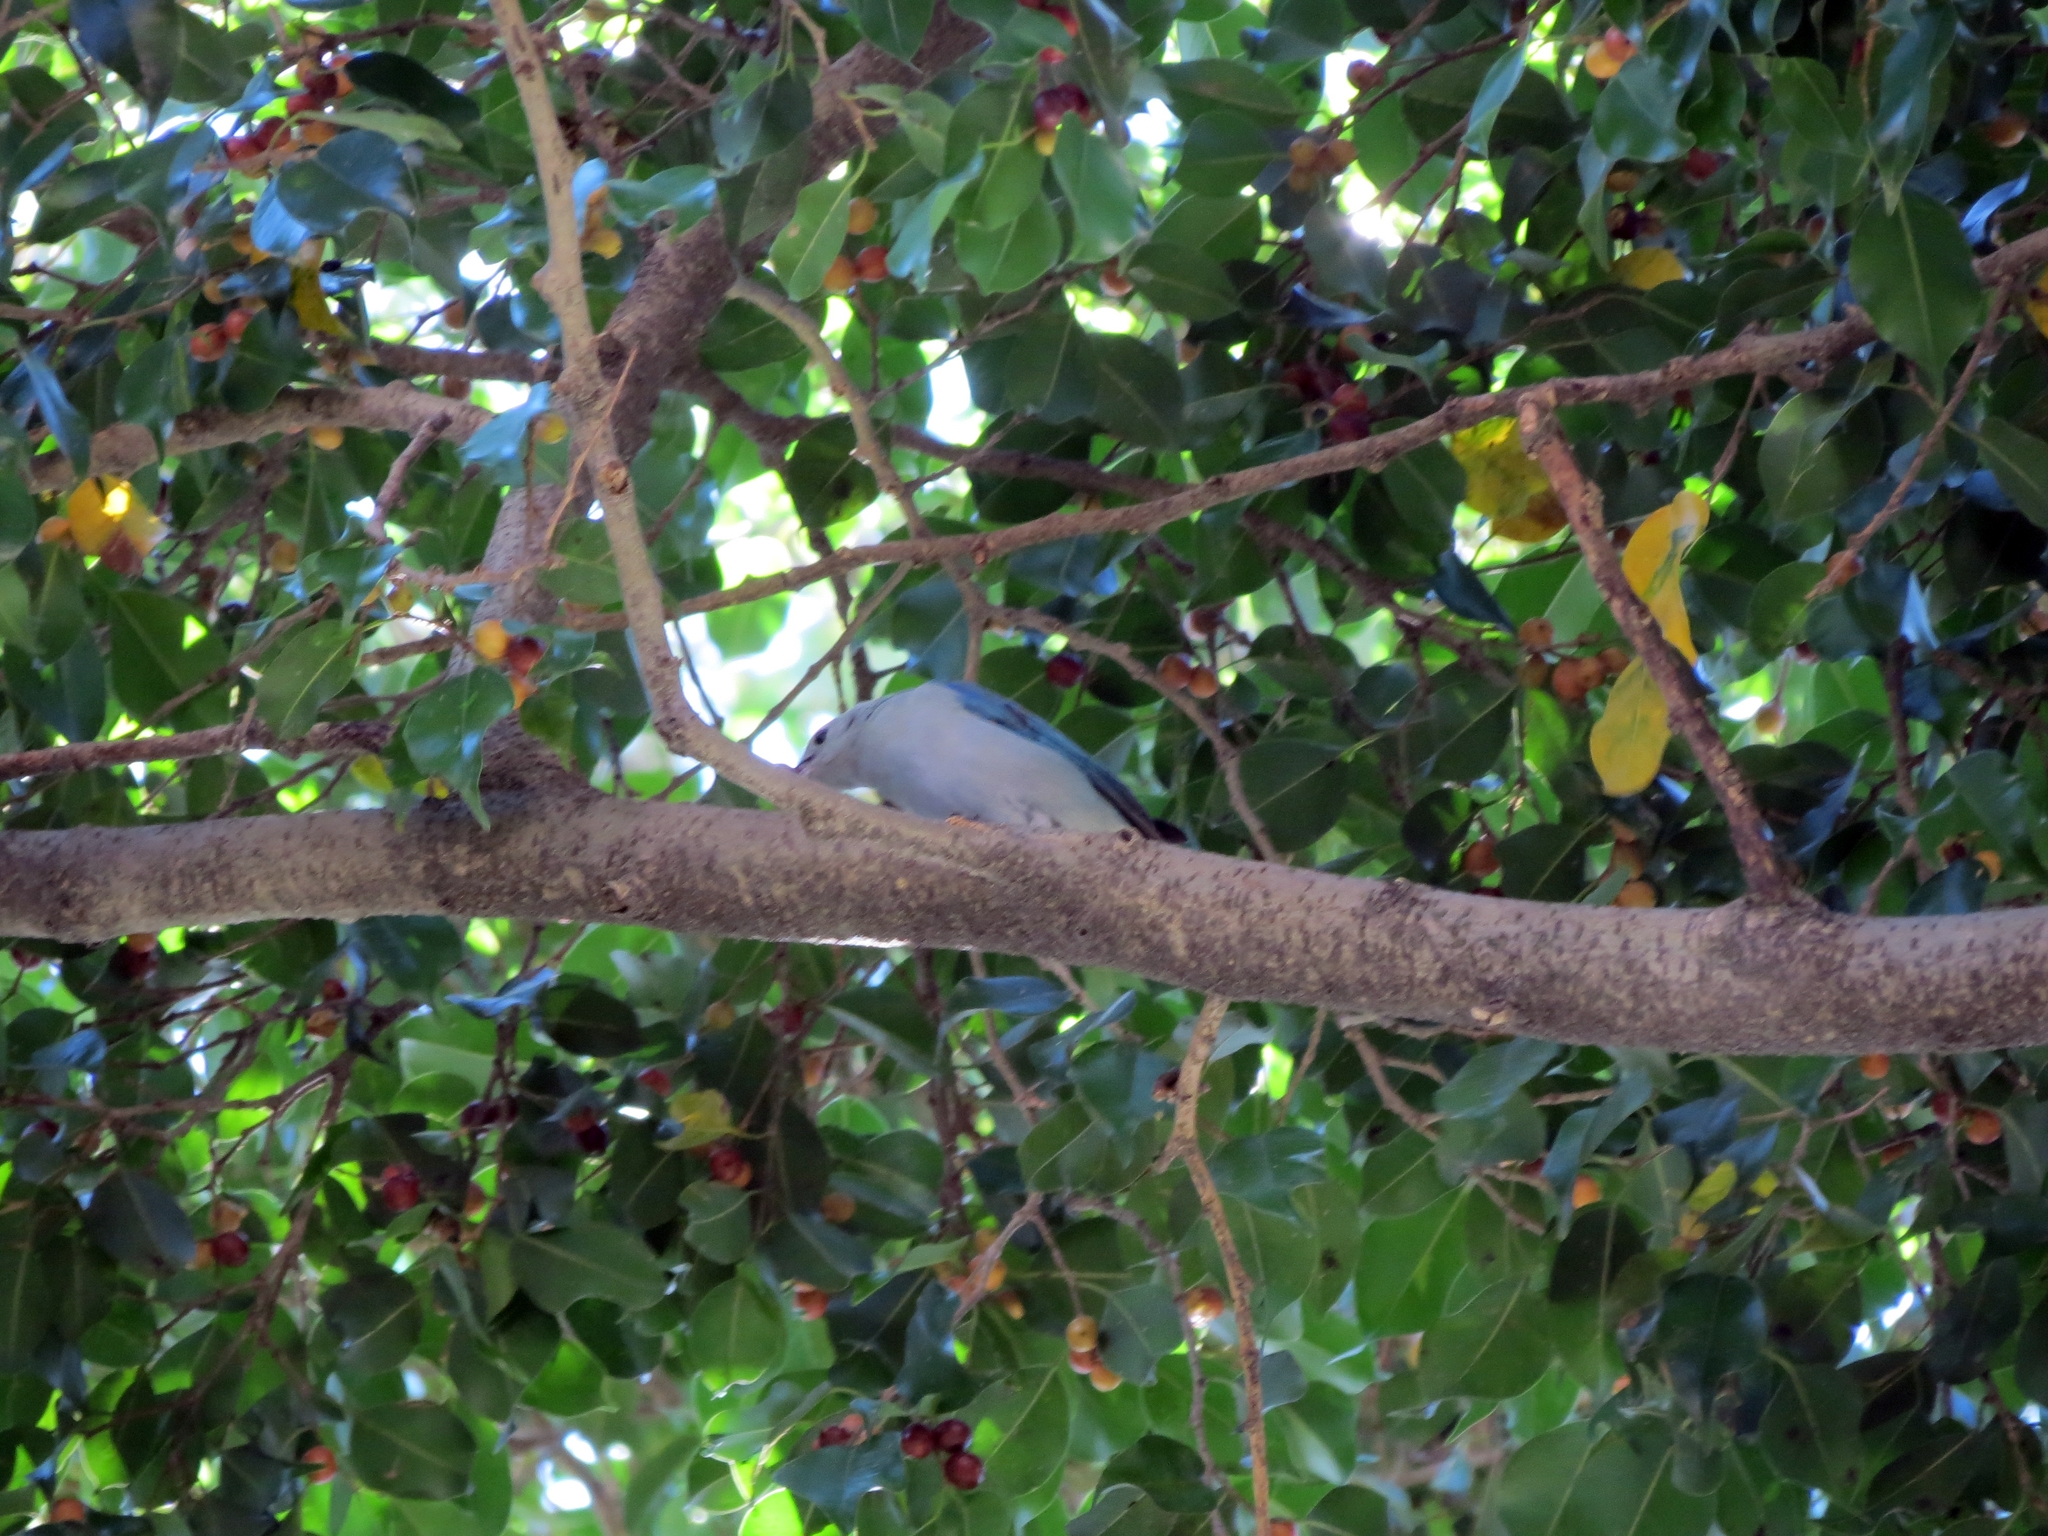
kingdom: Animalia
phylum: Chordata
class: Aves
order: Passeriformes
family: Thraupidae
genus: Thraupis
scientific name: Thraupis episcopus
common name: Blue-grey tanager
